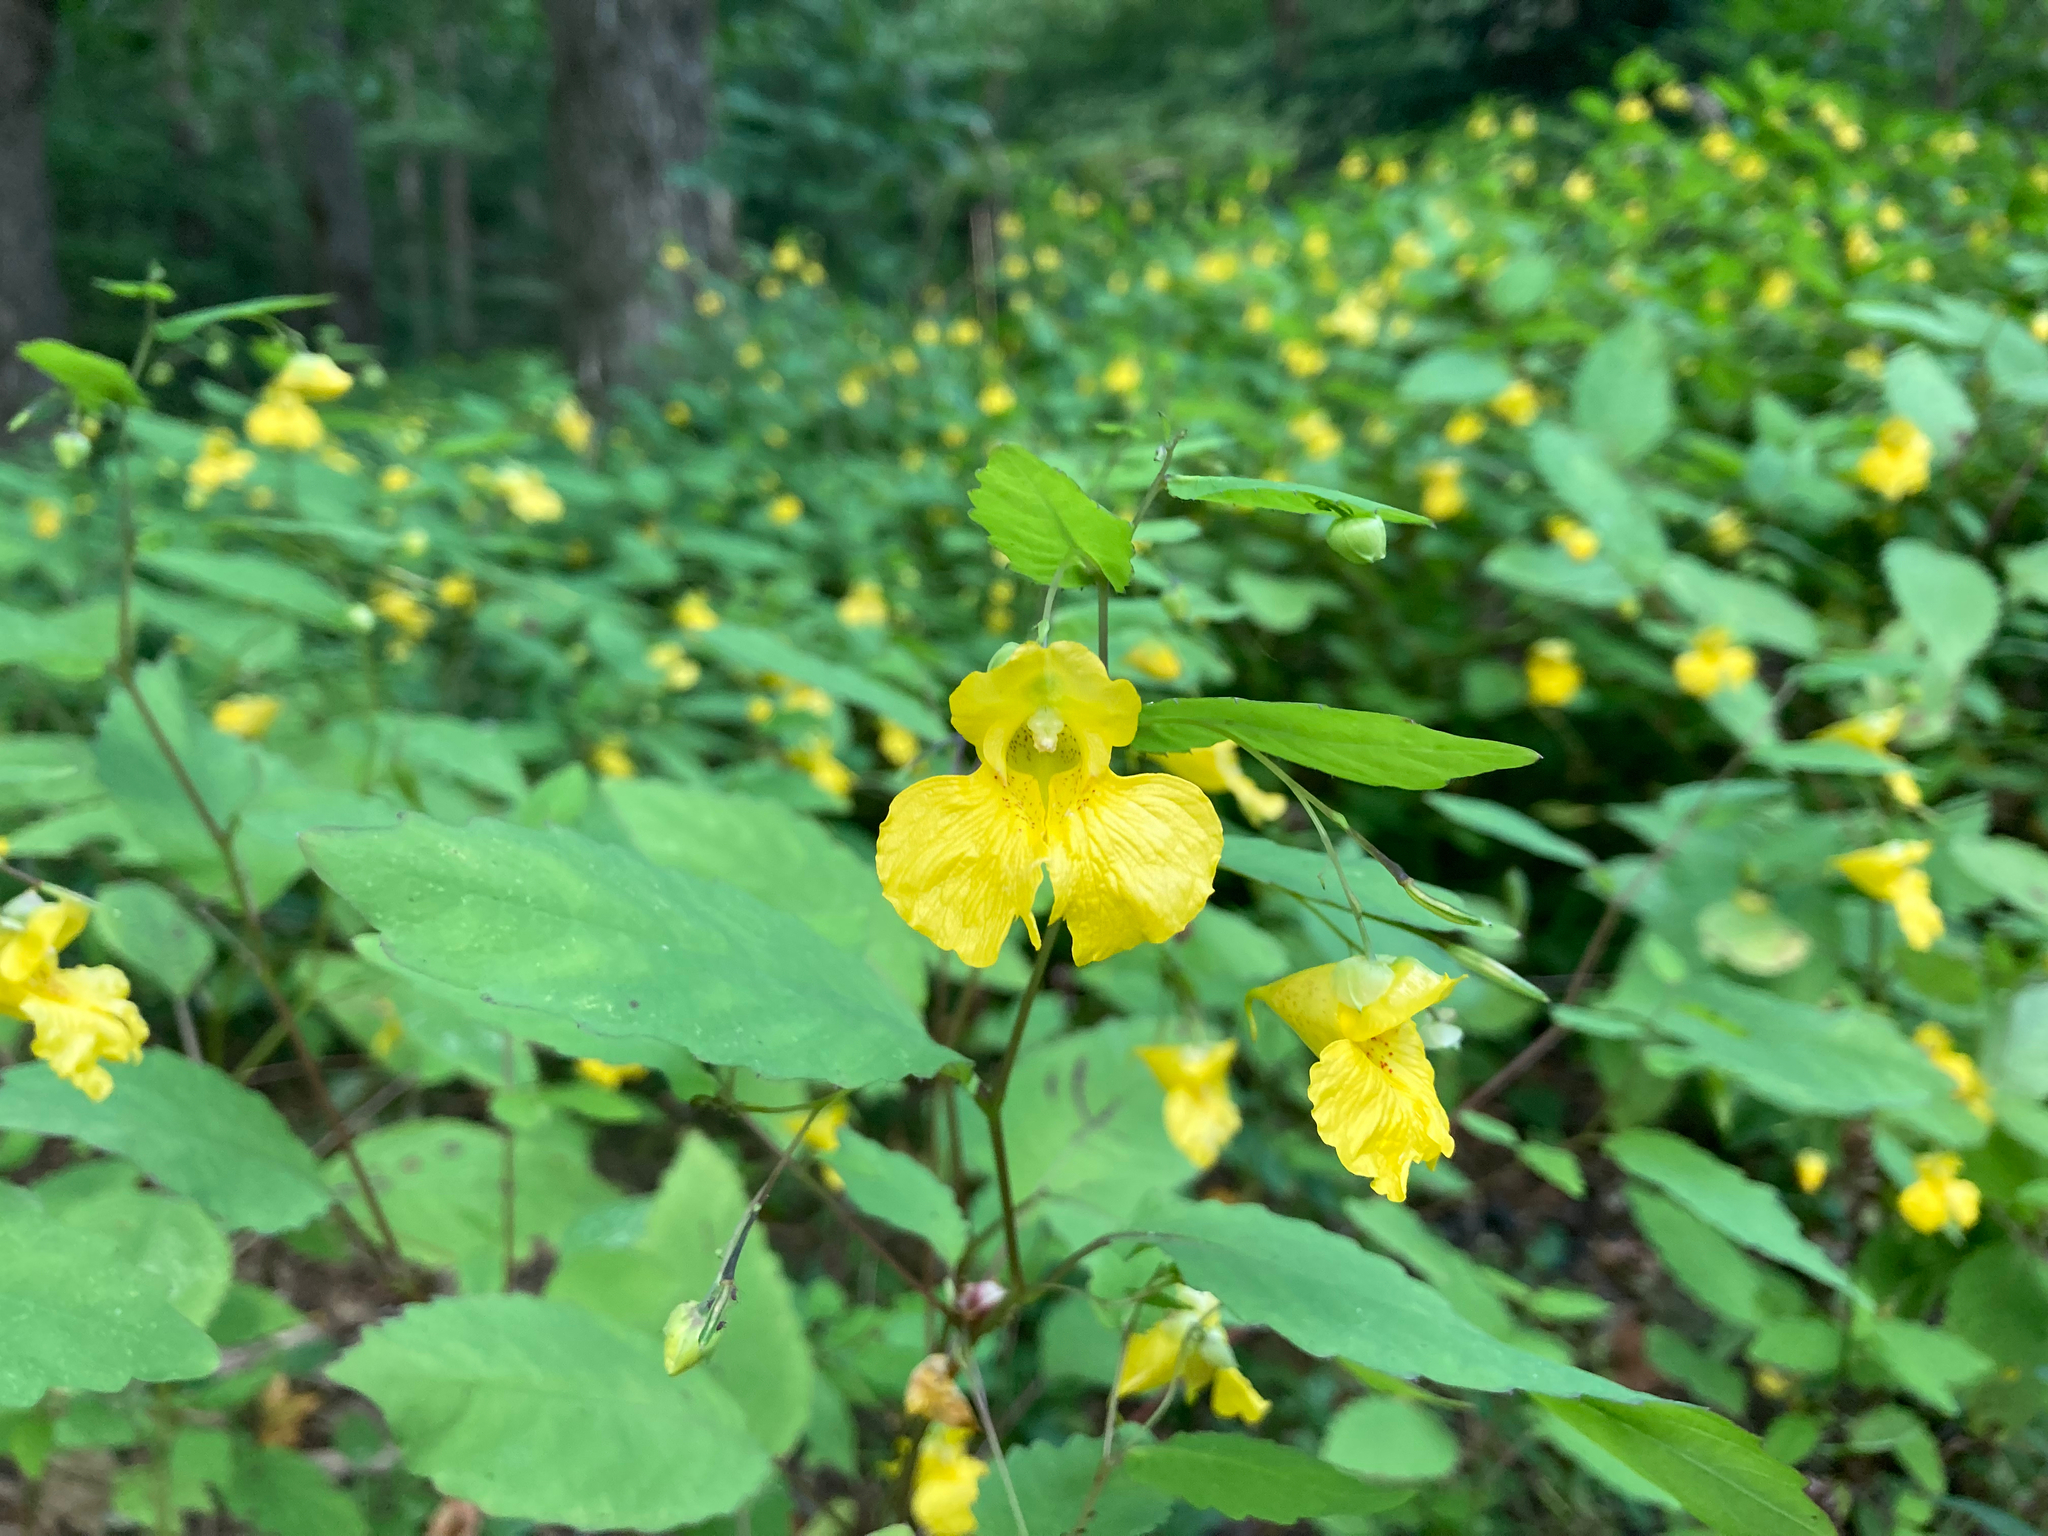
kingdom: Plantae
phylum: Tracheophyta
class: Magnoliopsida
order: Ericales
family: Balsaminaceae
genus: Impatiens
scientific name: Impatiens pallida
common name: Pale snapweed
